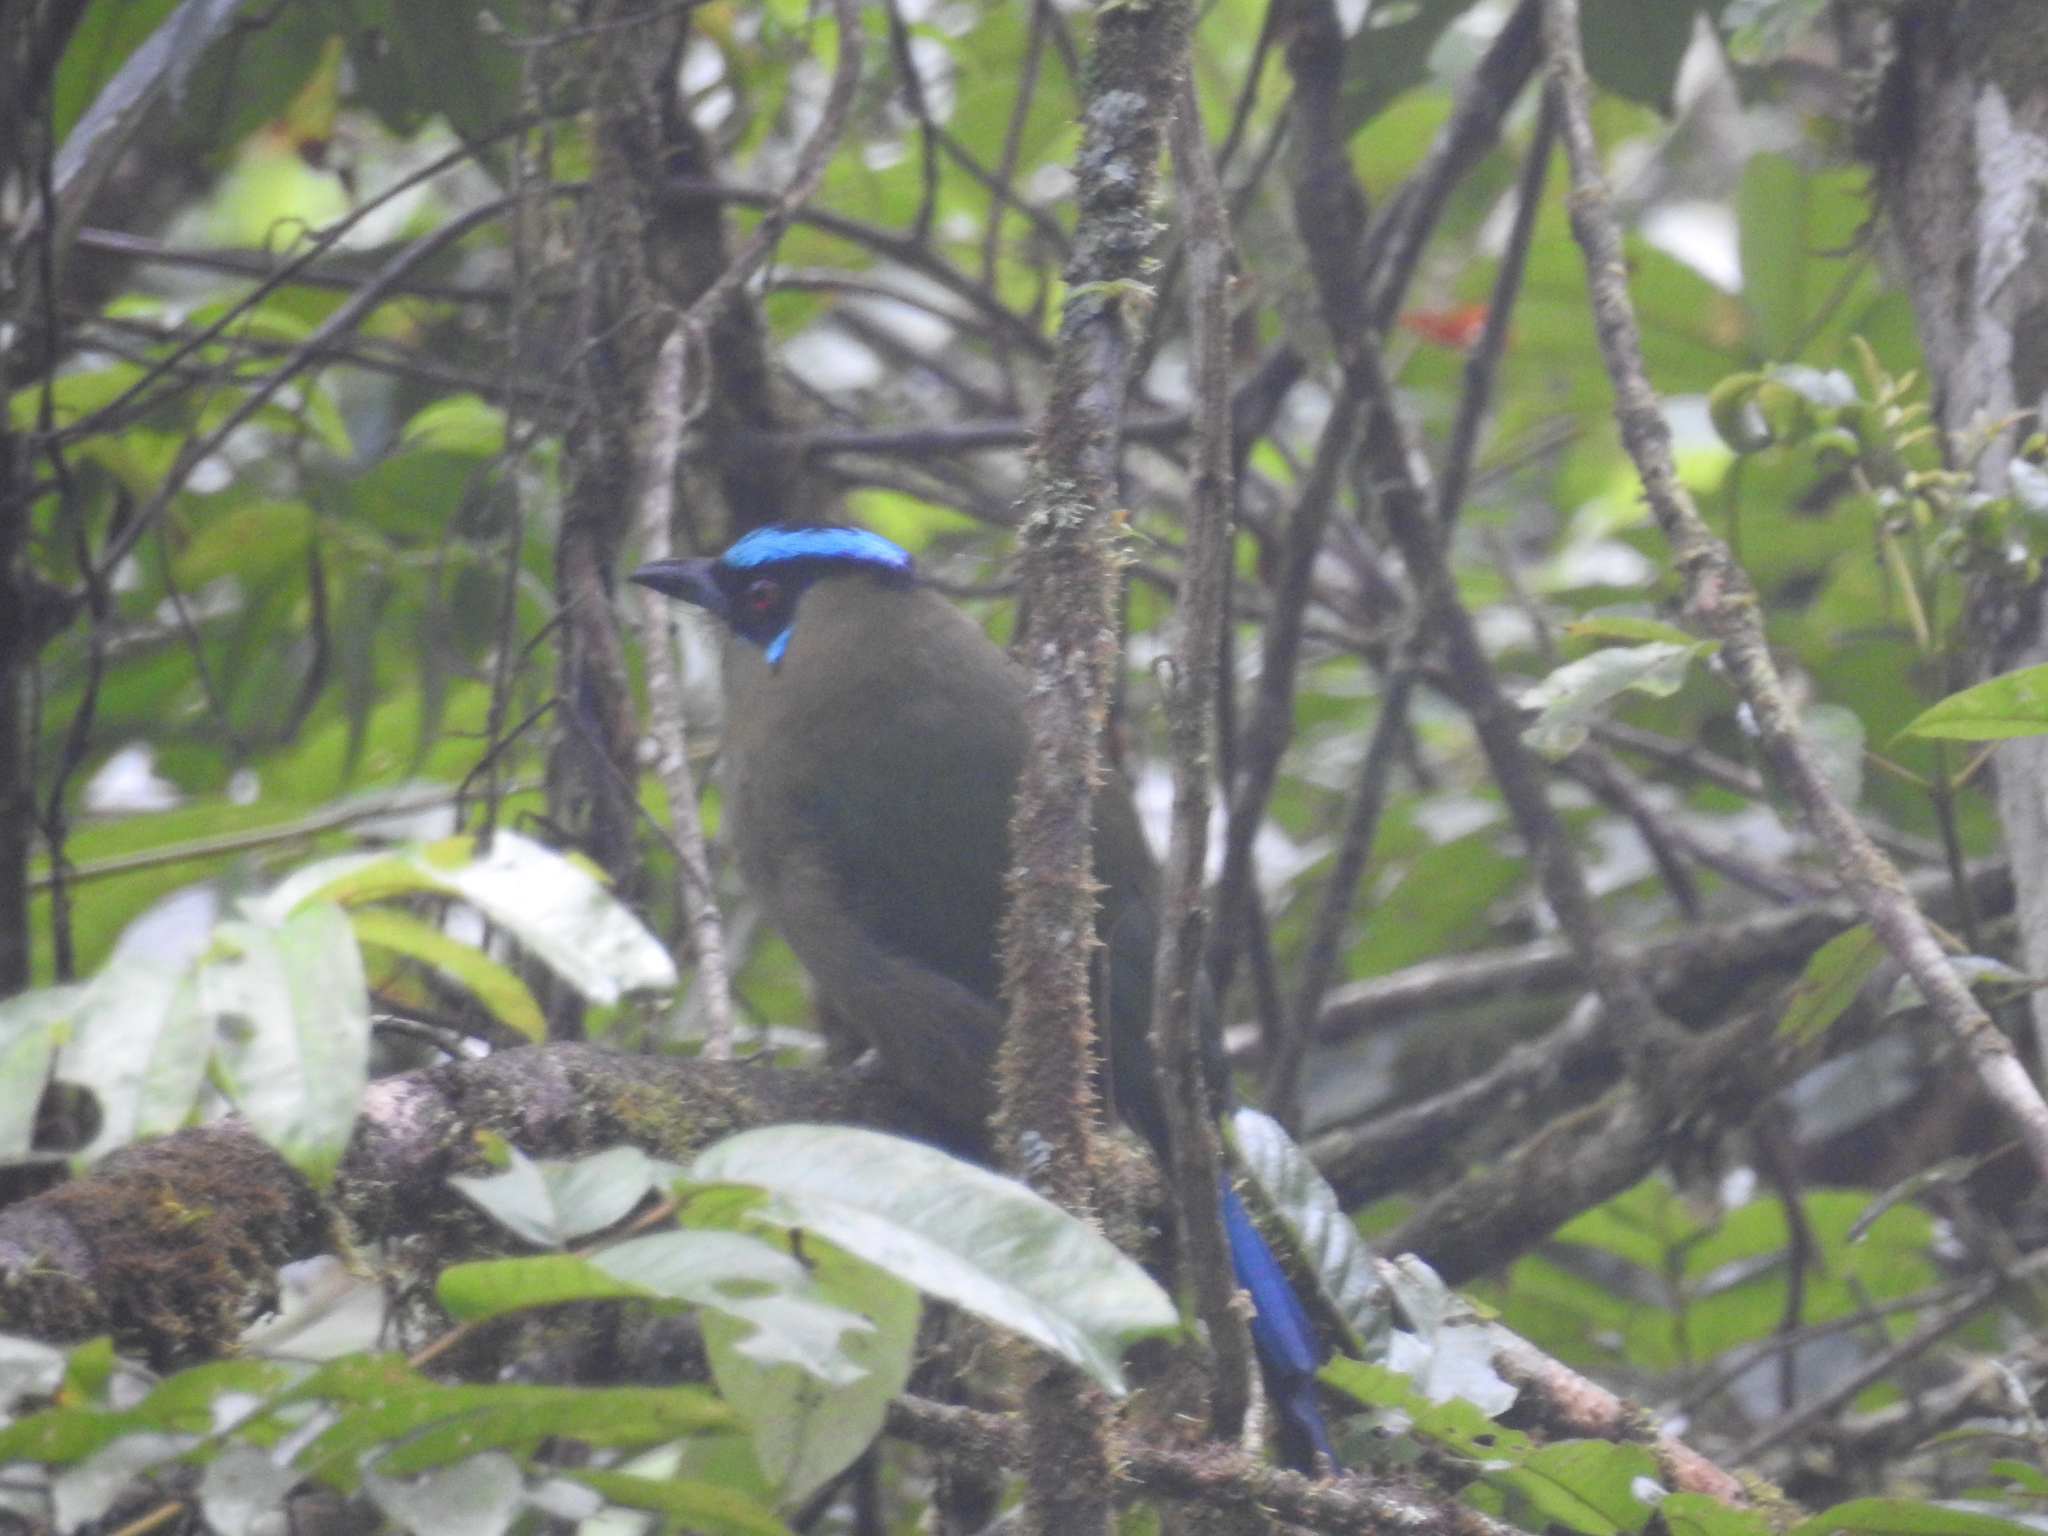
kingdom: Animalia
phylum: Chordata
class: Aves
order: Coraciiformes
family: Momotidae
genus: Momotus
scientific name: Momotus aequatorialis
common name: Andean motmot
